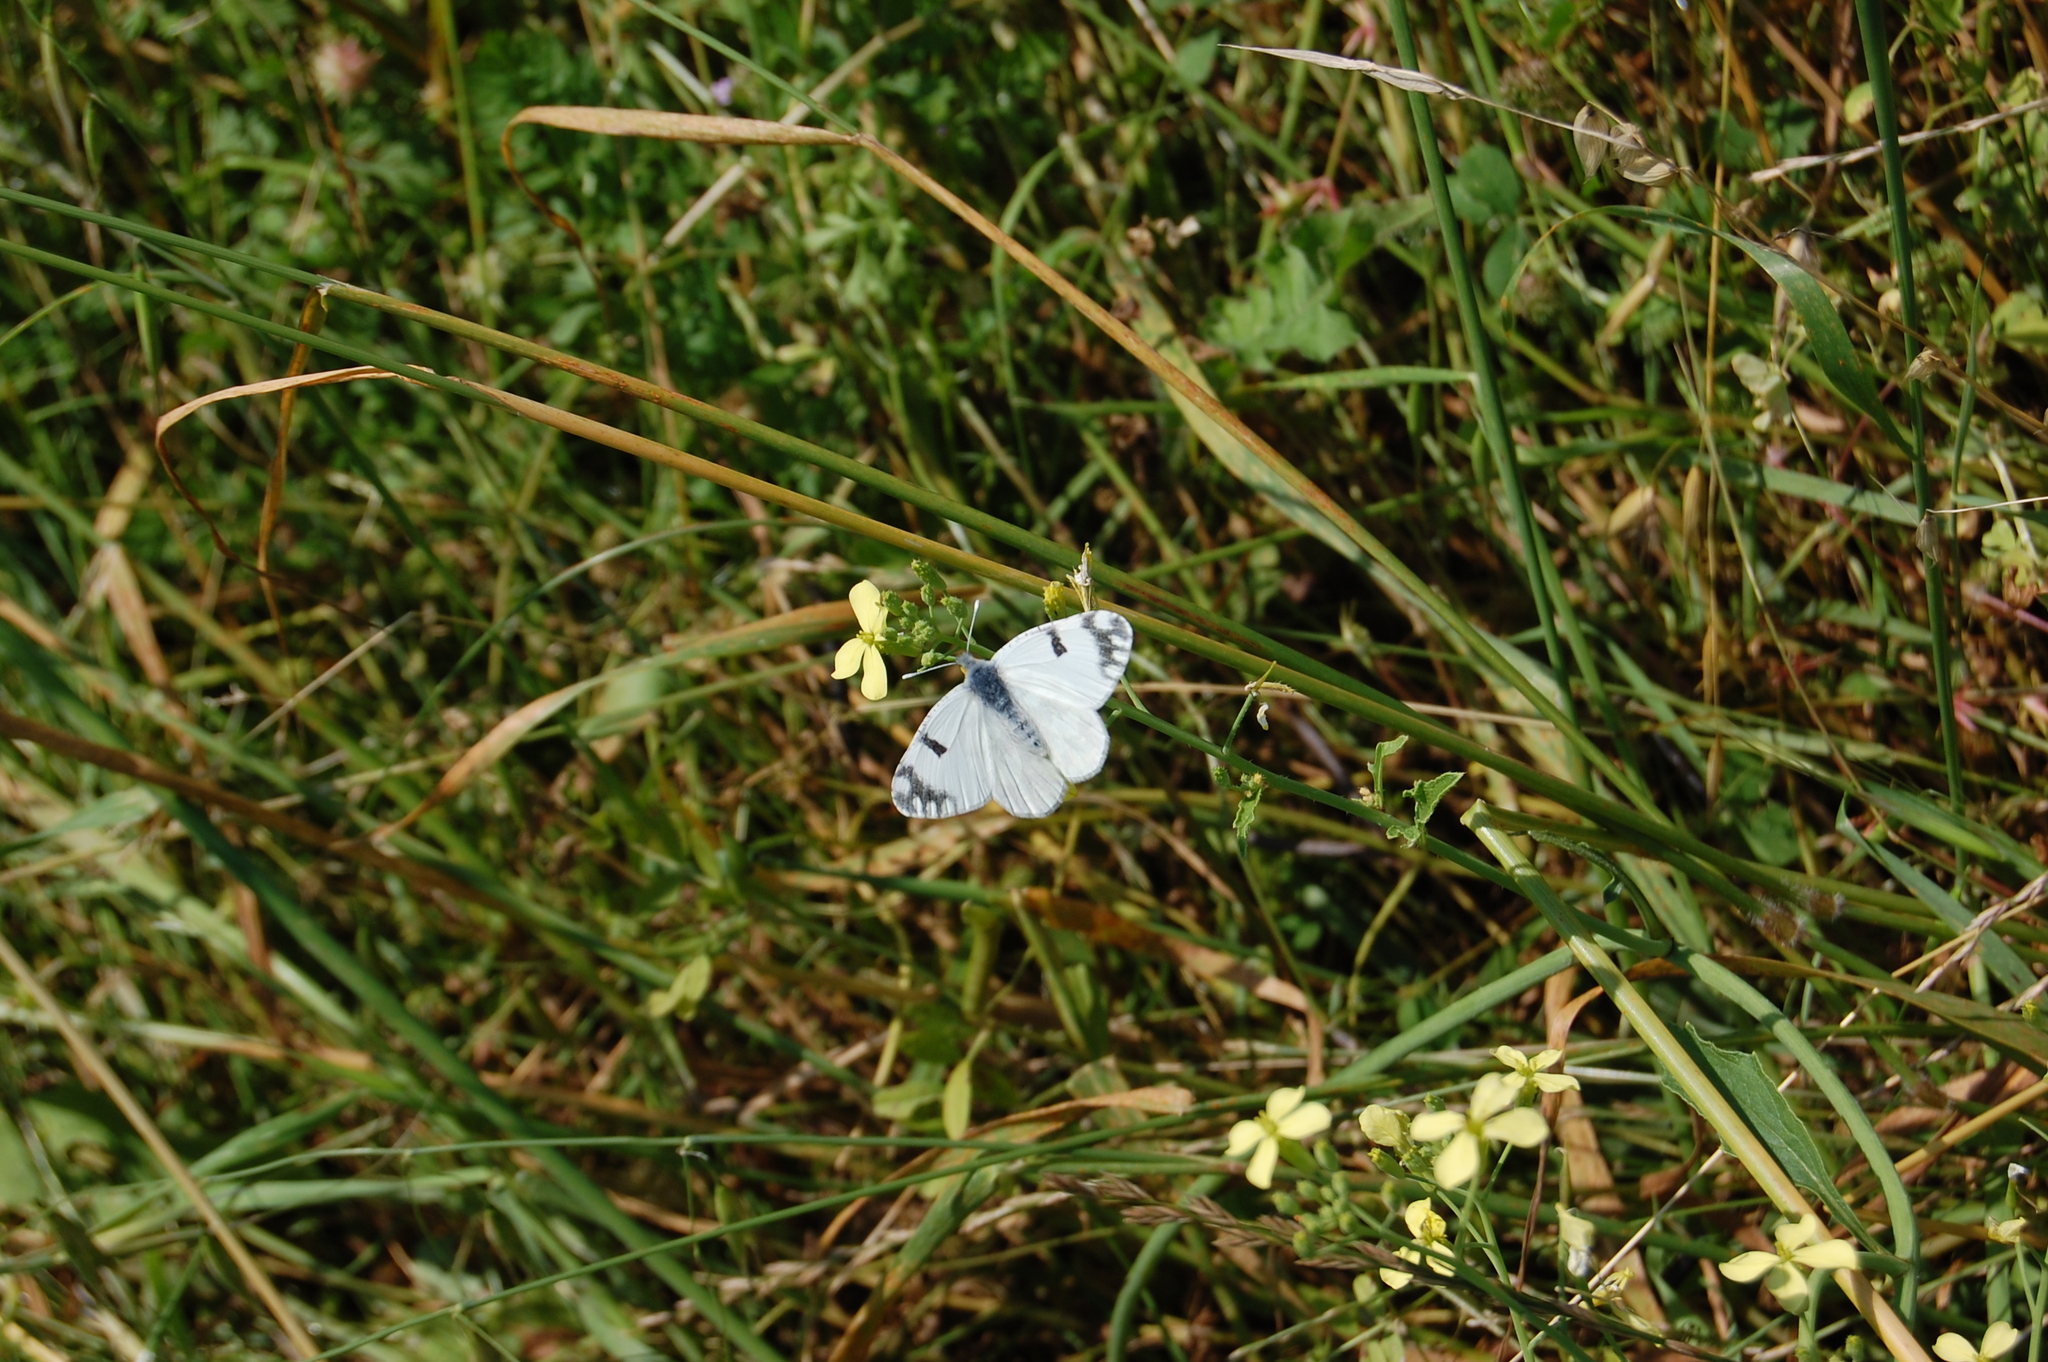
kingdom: Animalia
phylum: Arthropoda
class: Insecta
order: Lepidoptera
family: Pieridae
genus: Euchloe
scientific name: Euchloe ausonia
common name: Eastern dappled white
